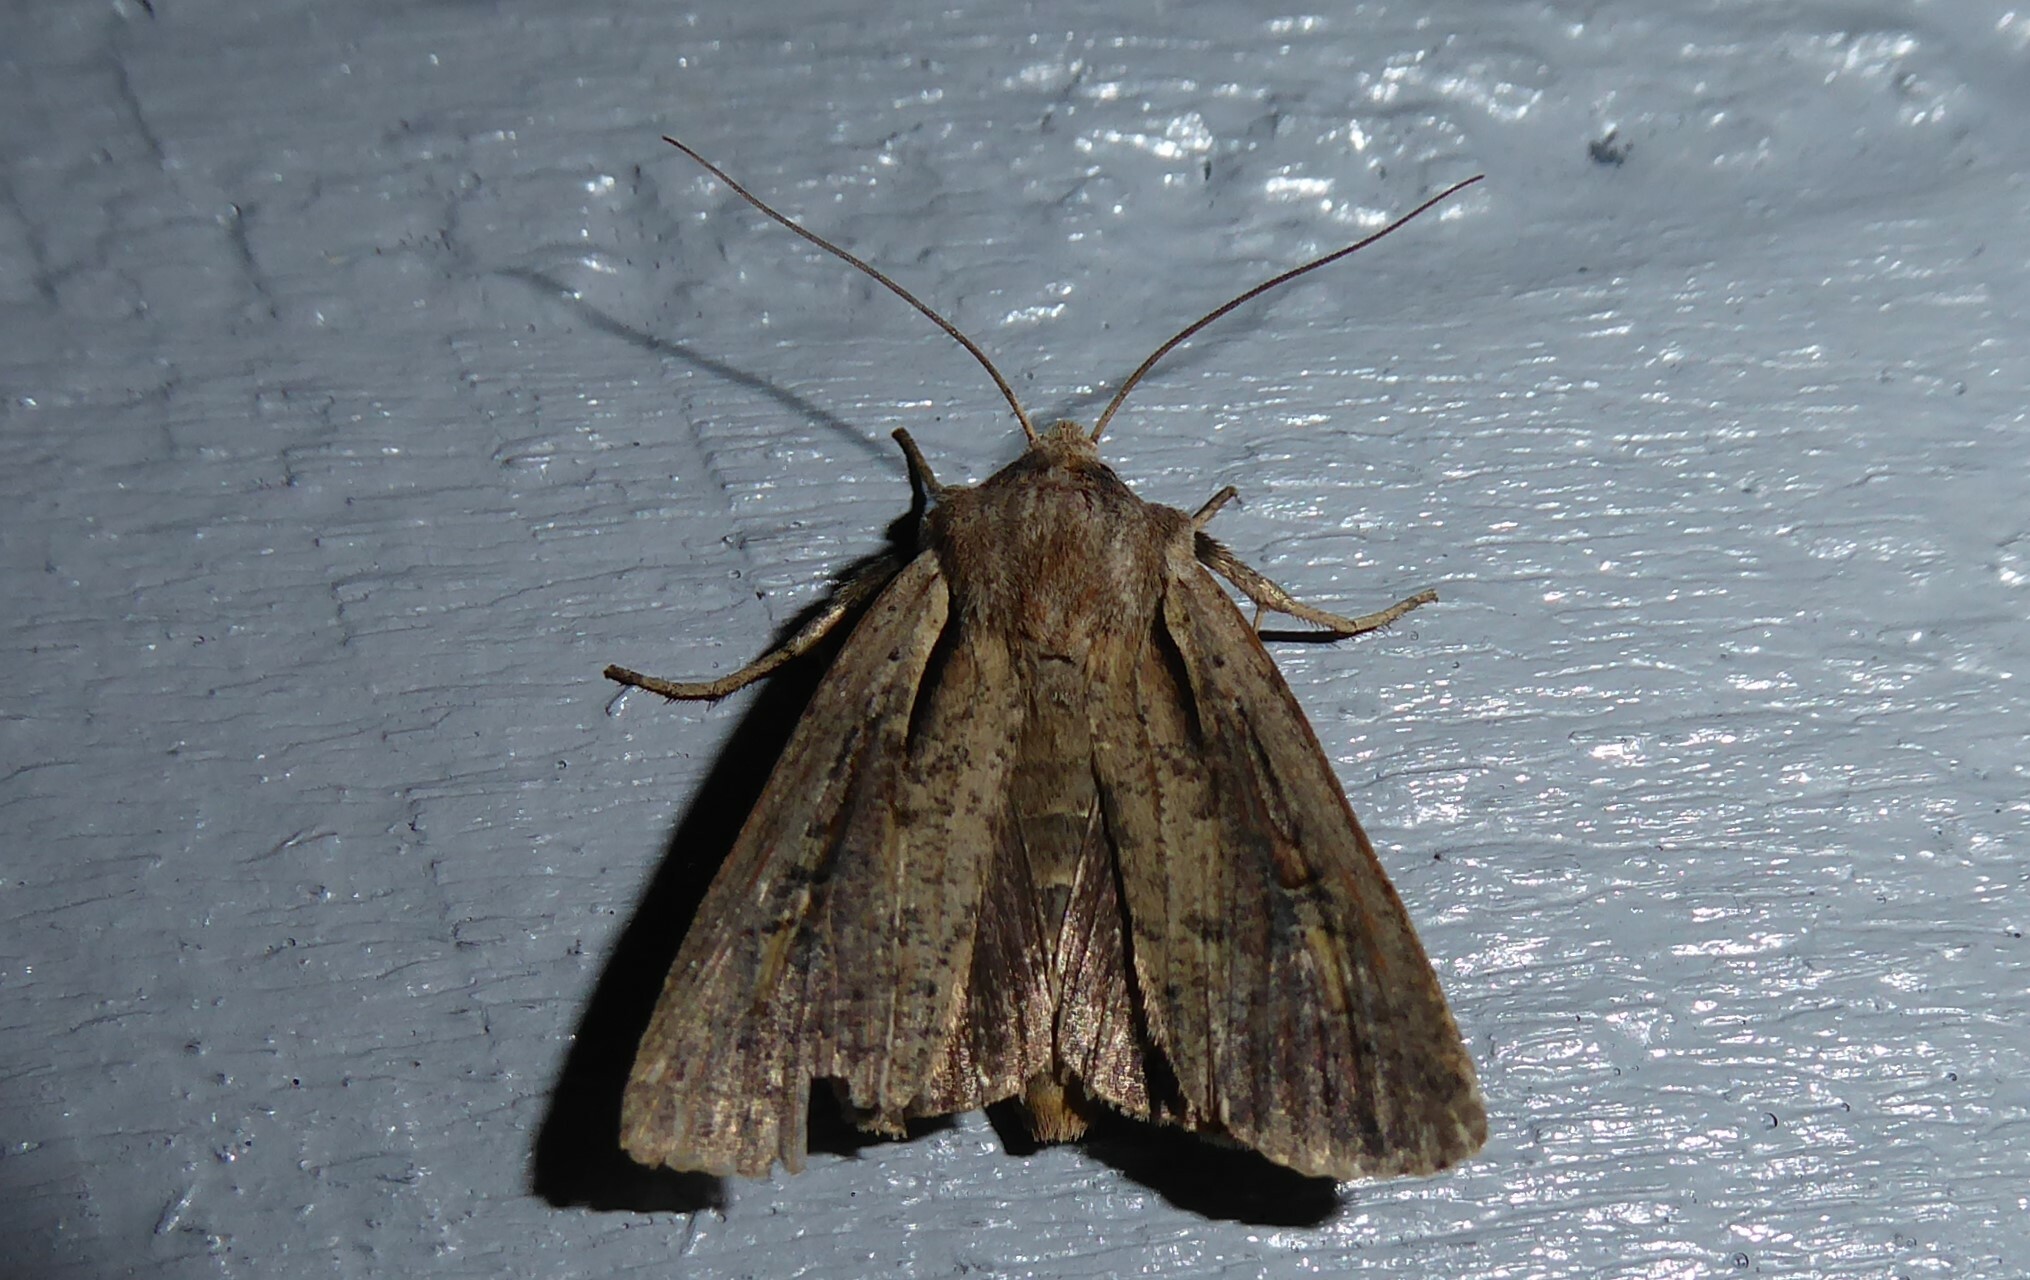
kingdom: Animalia
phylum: Arthropoda
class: Insecta
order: Lepidoptera
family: Noctuidae
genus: Ichneutica
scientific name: Ichneutica atristriga
